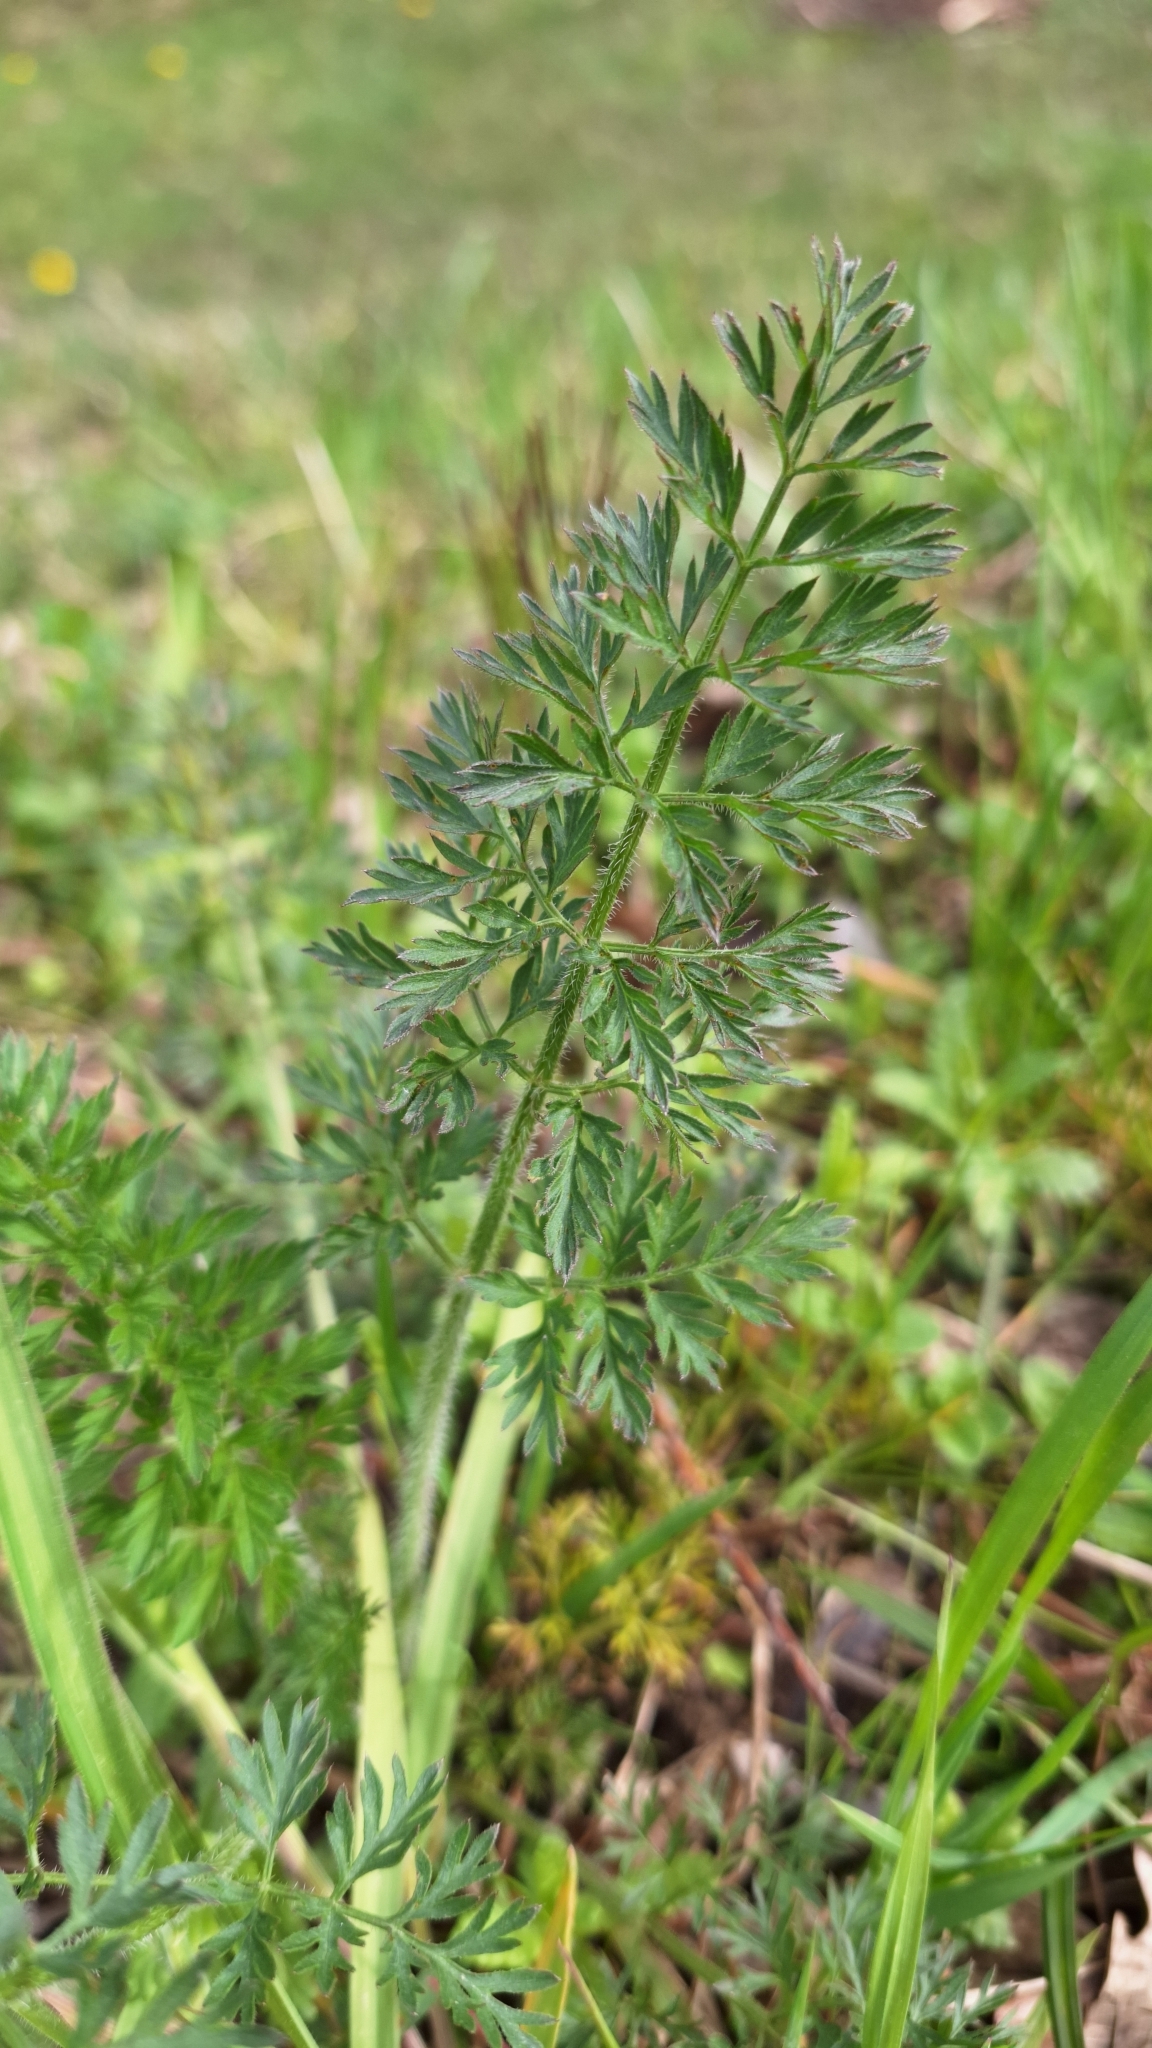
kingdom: Plantae
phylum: Tracheophyta
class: Magnoliopsida
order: Apiales
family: Apiaceae
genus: Daucus
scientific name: Daucus carota
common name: Wild carrot
